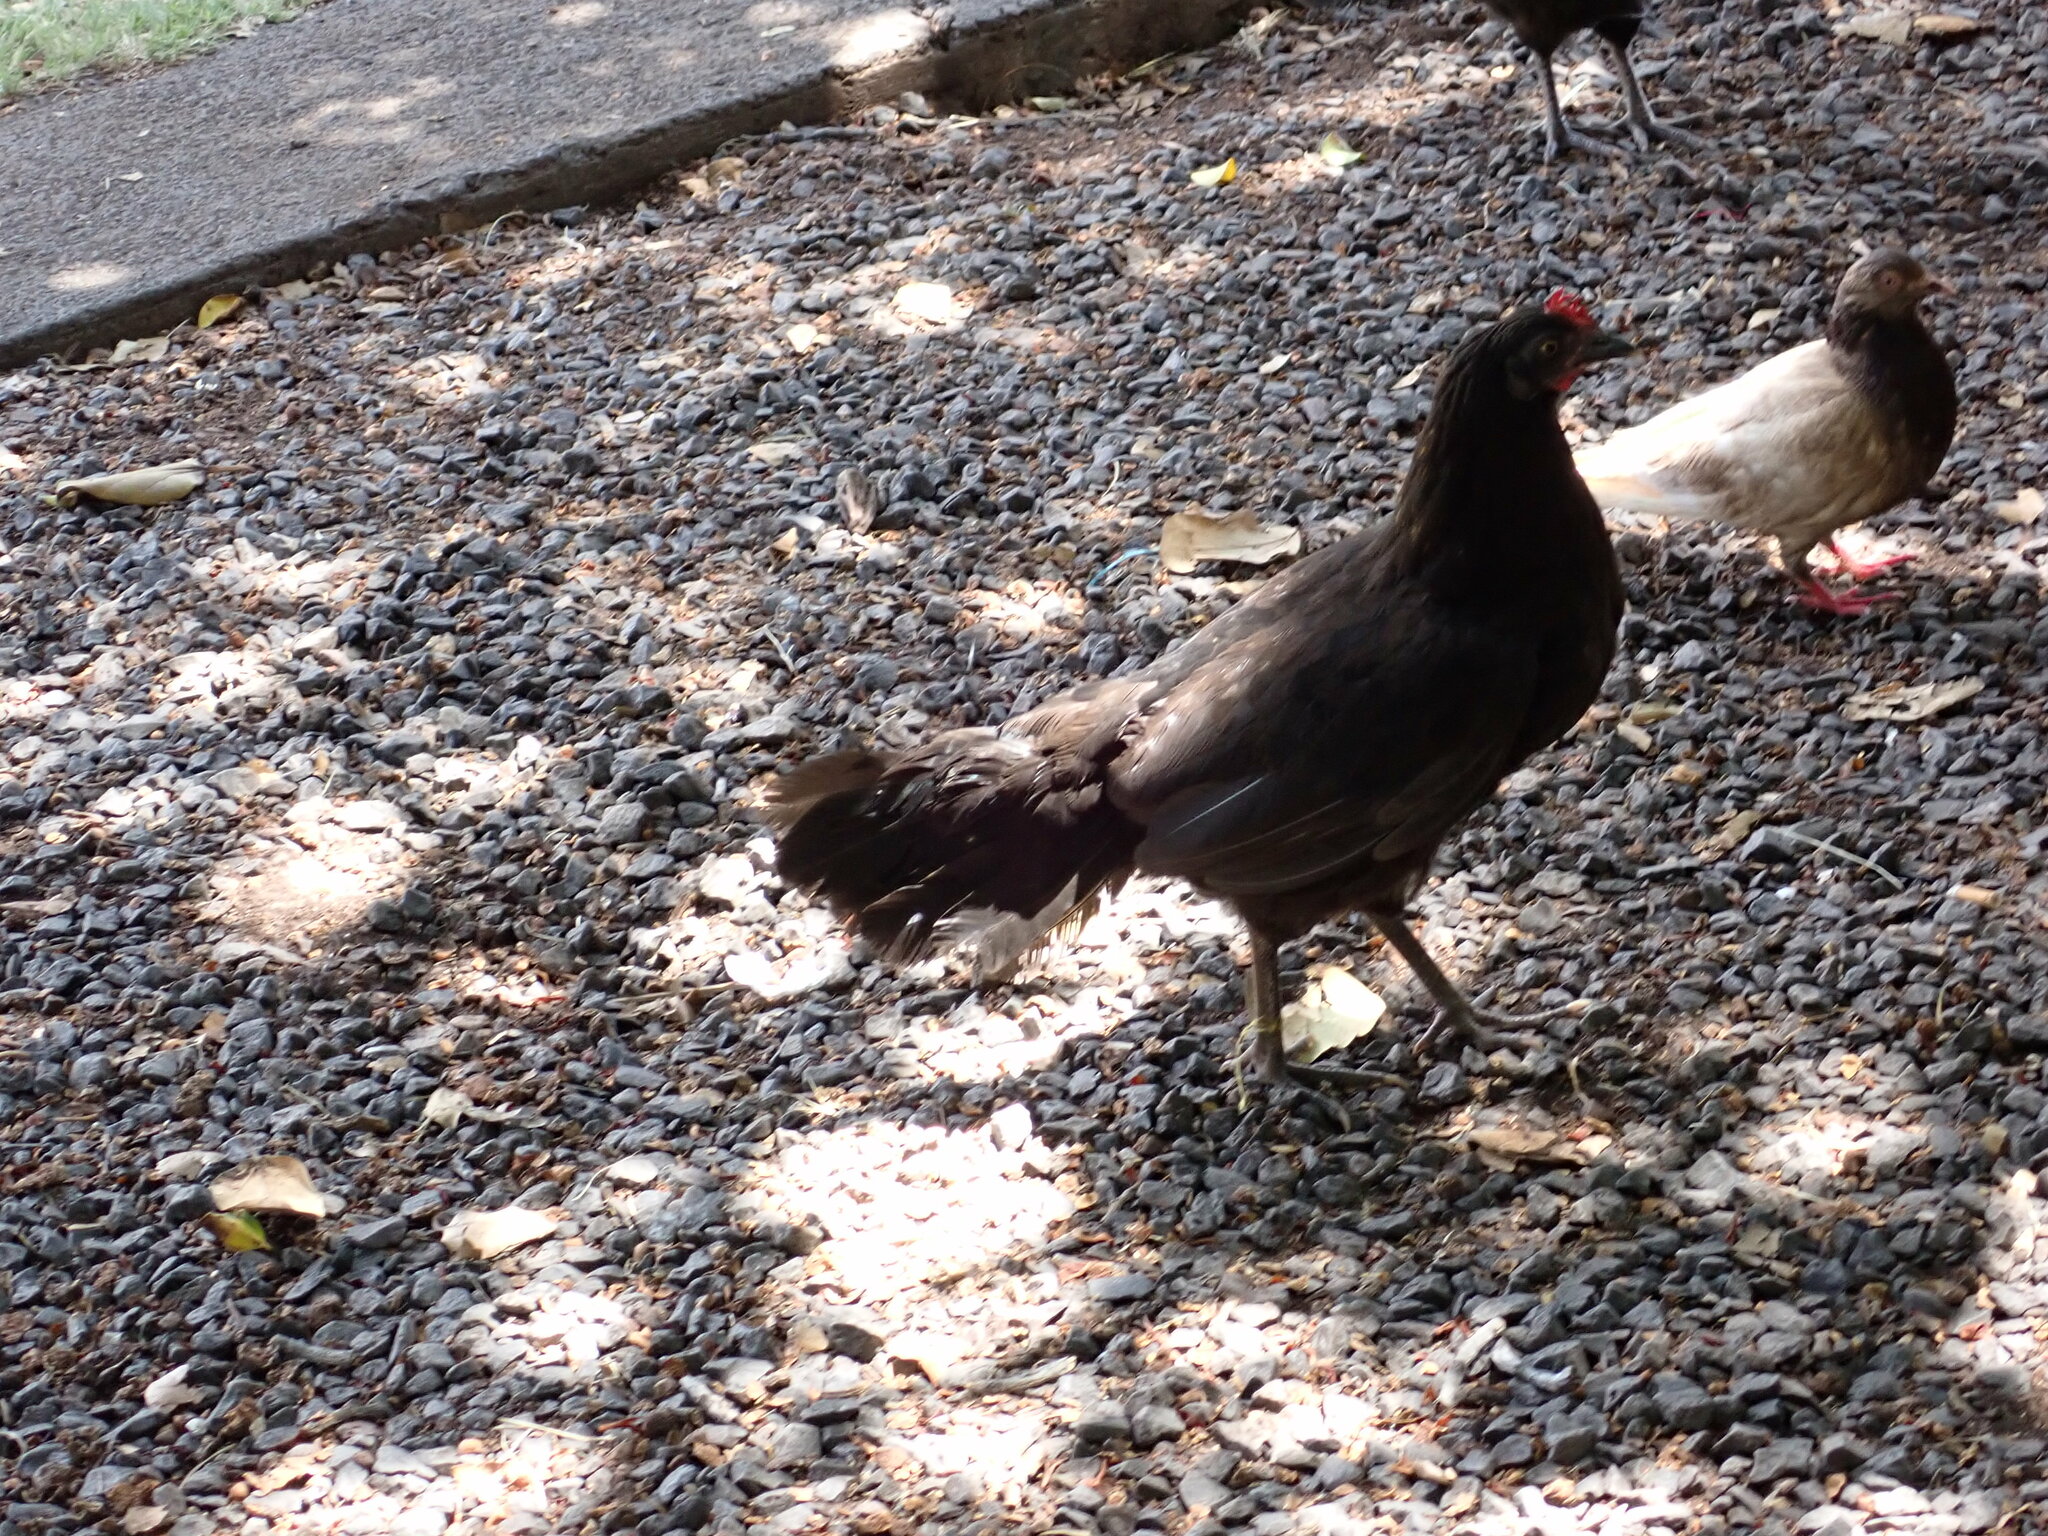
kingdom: Animalia
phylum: Chordata
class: Aves
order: Galliformes
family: Phasianidae
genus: Gallus
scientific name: Gallus gallus
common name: Red junglefowl
